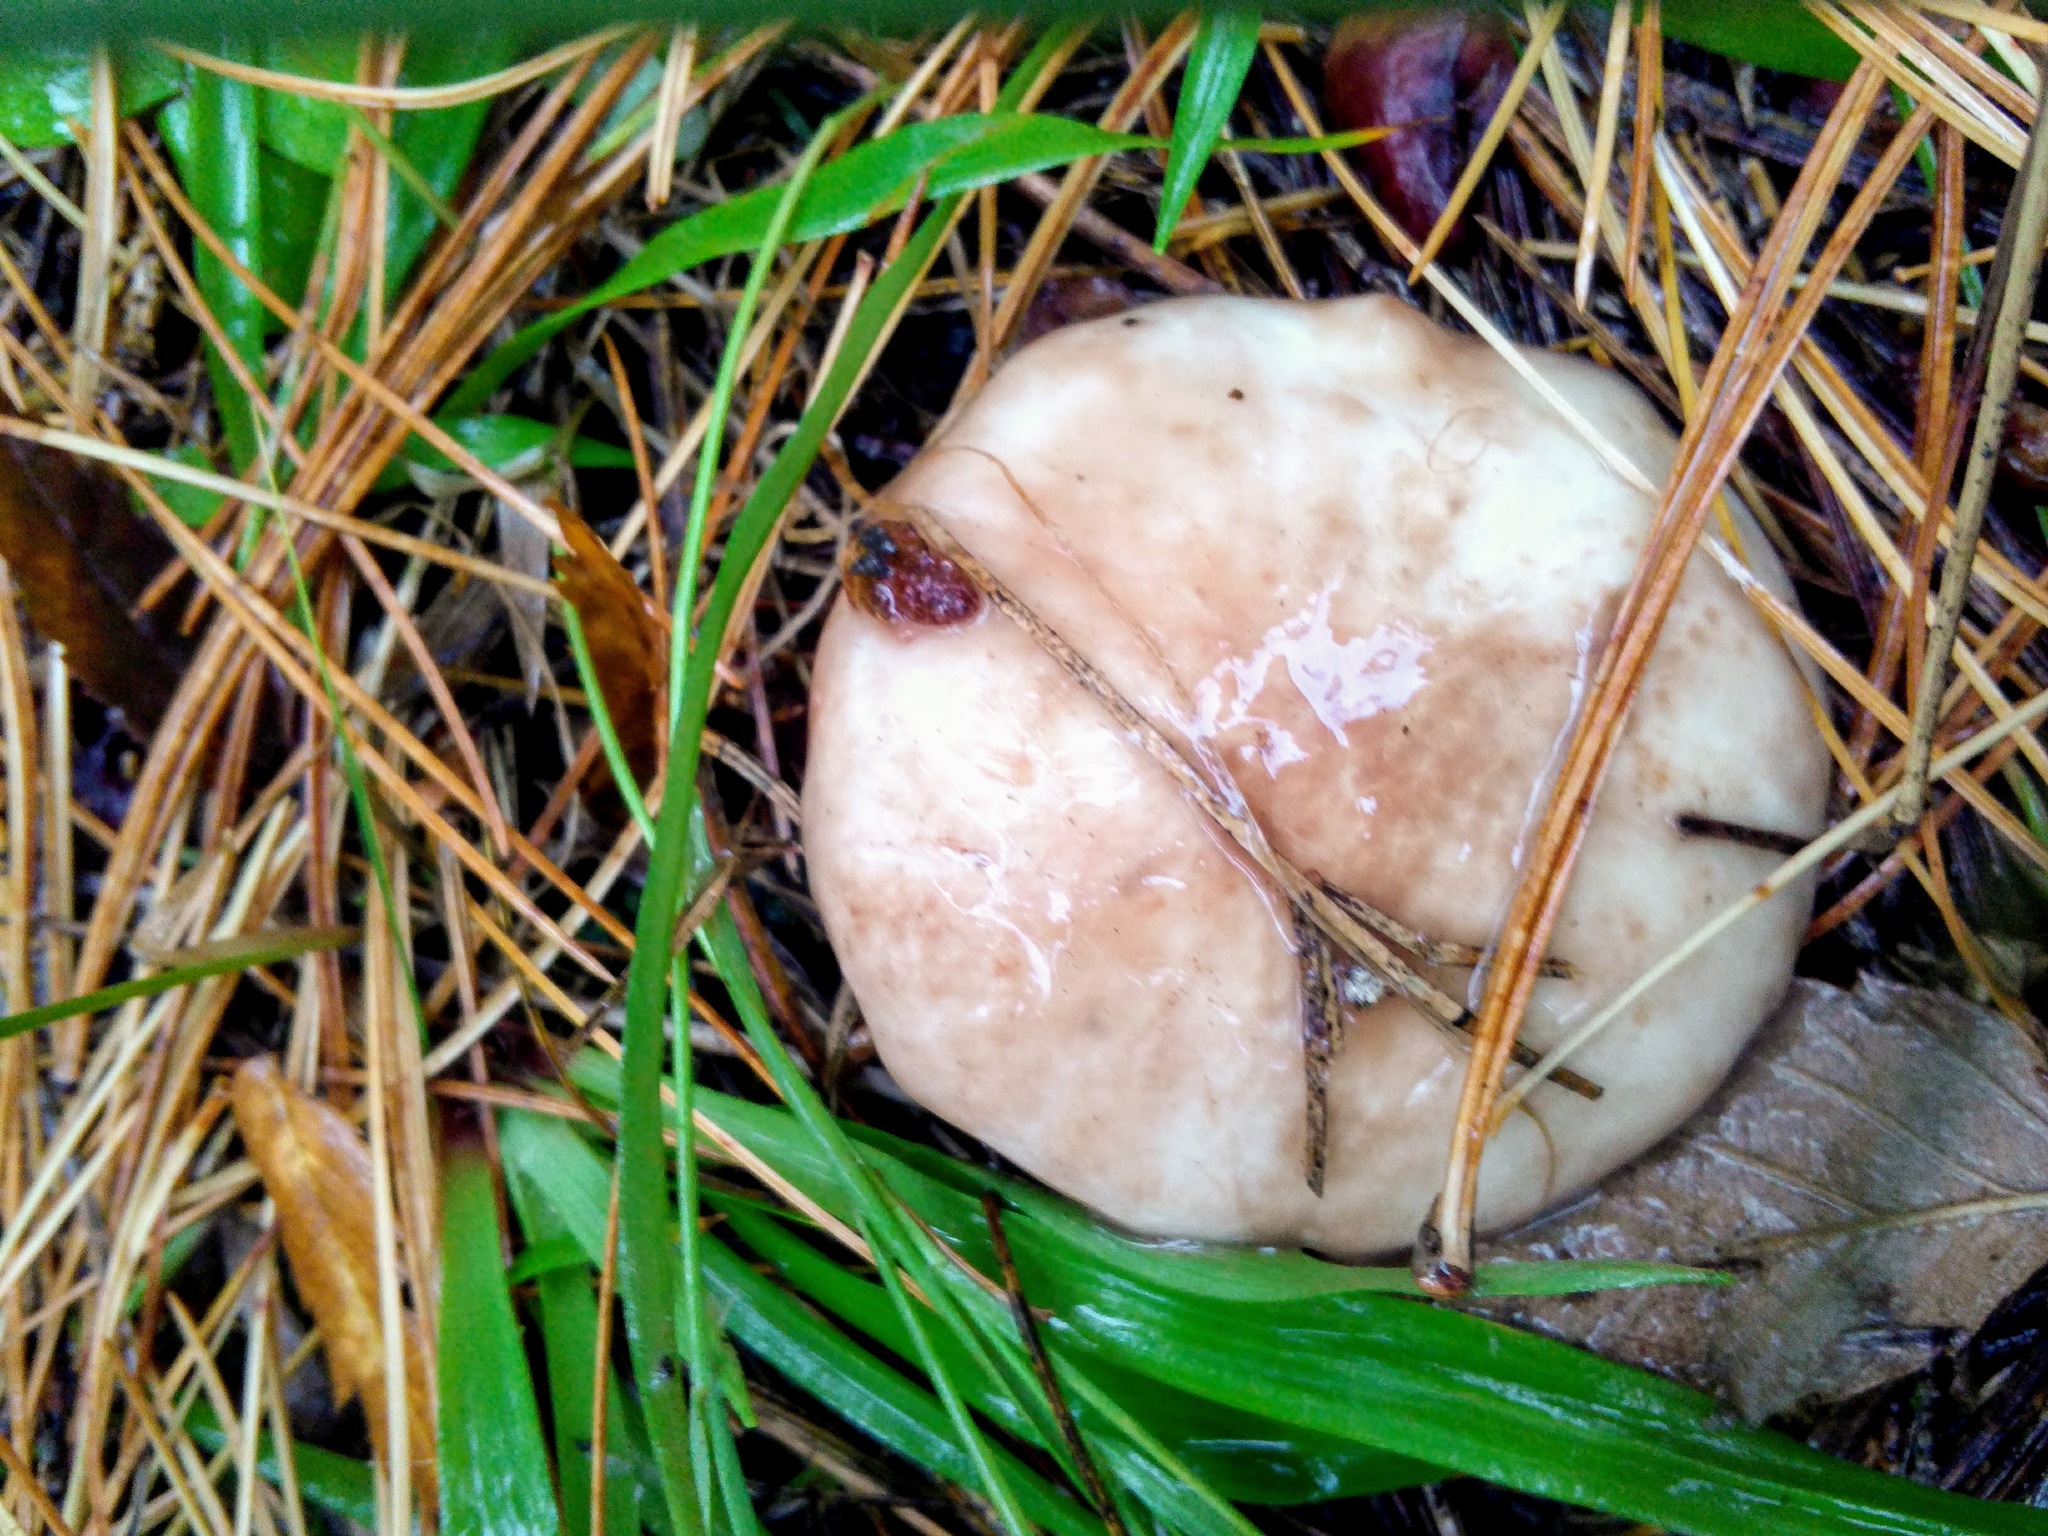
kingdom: Fungi
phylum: Basidiomycota
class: Agaricomycetes
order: Boletales
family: Suillaceae
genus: Suillus
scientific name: Suillus placidus
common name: Slippery white bolete
